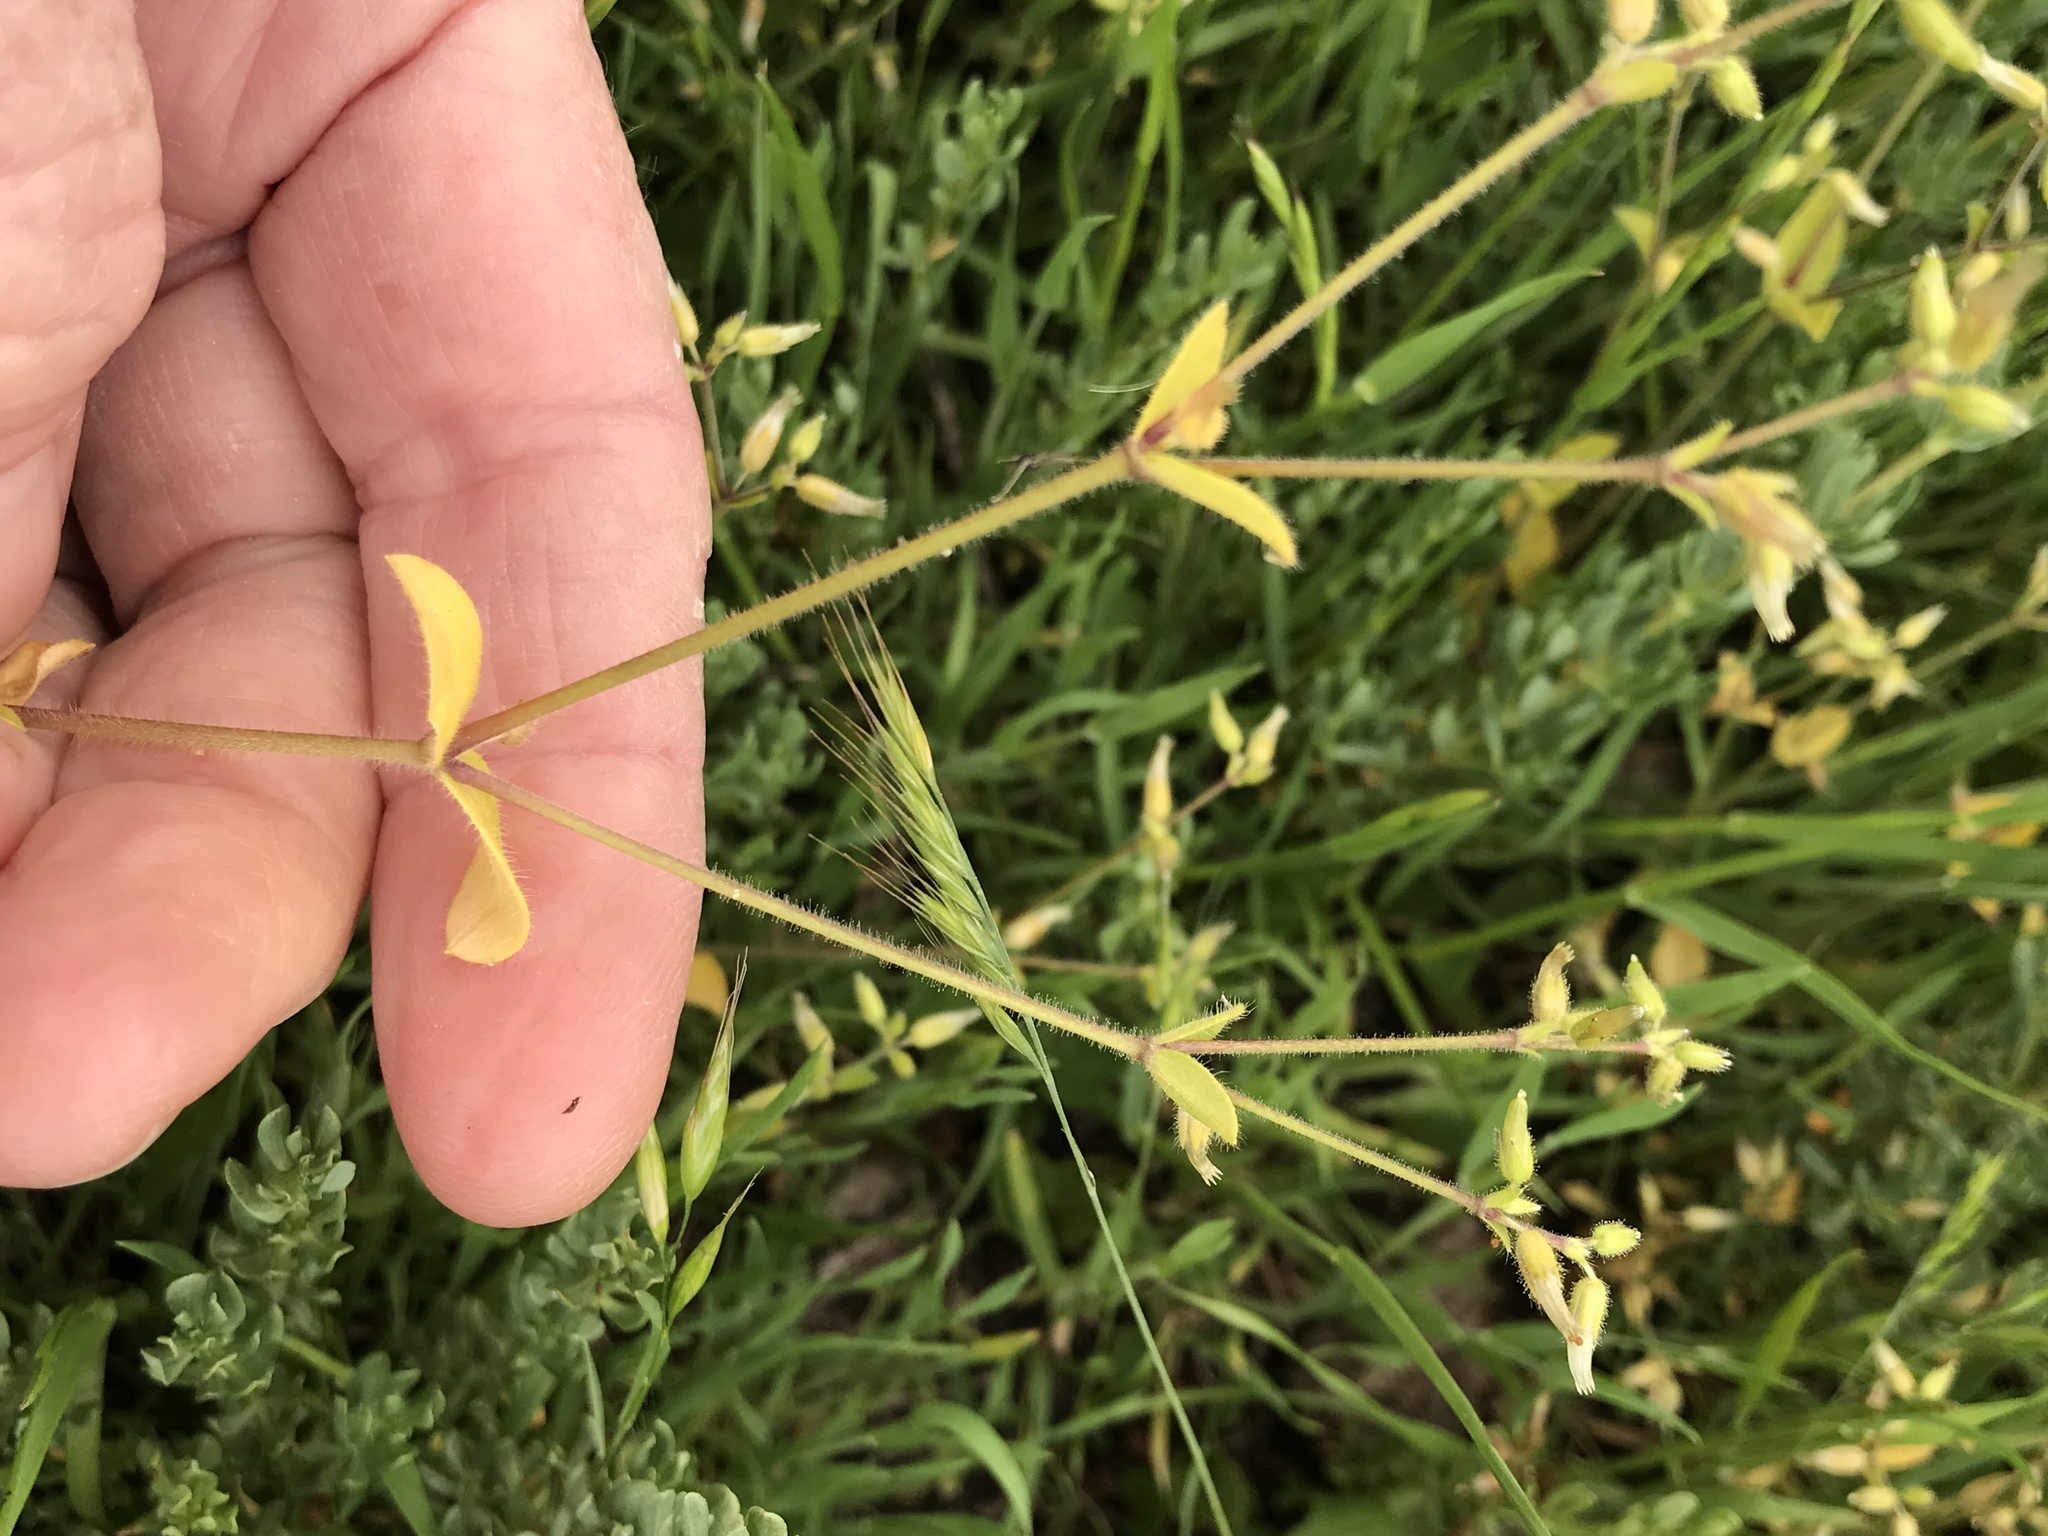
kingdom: Plantae
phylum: Tracheophyta
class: Magnoliopsida
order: Caryophyllales
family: Caryophyllaceae
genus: Cerastium
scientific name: Cerastium glomeratum
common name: Sticky chickweed
